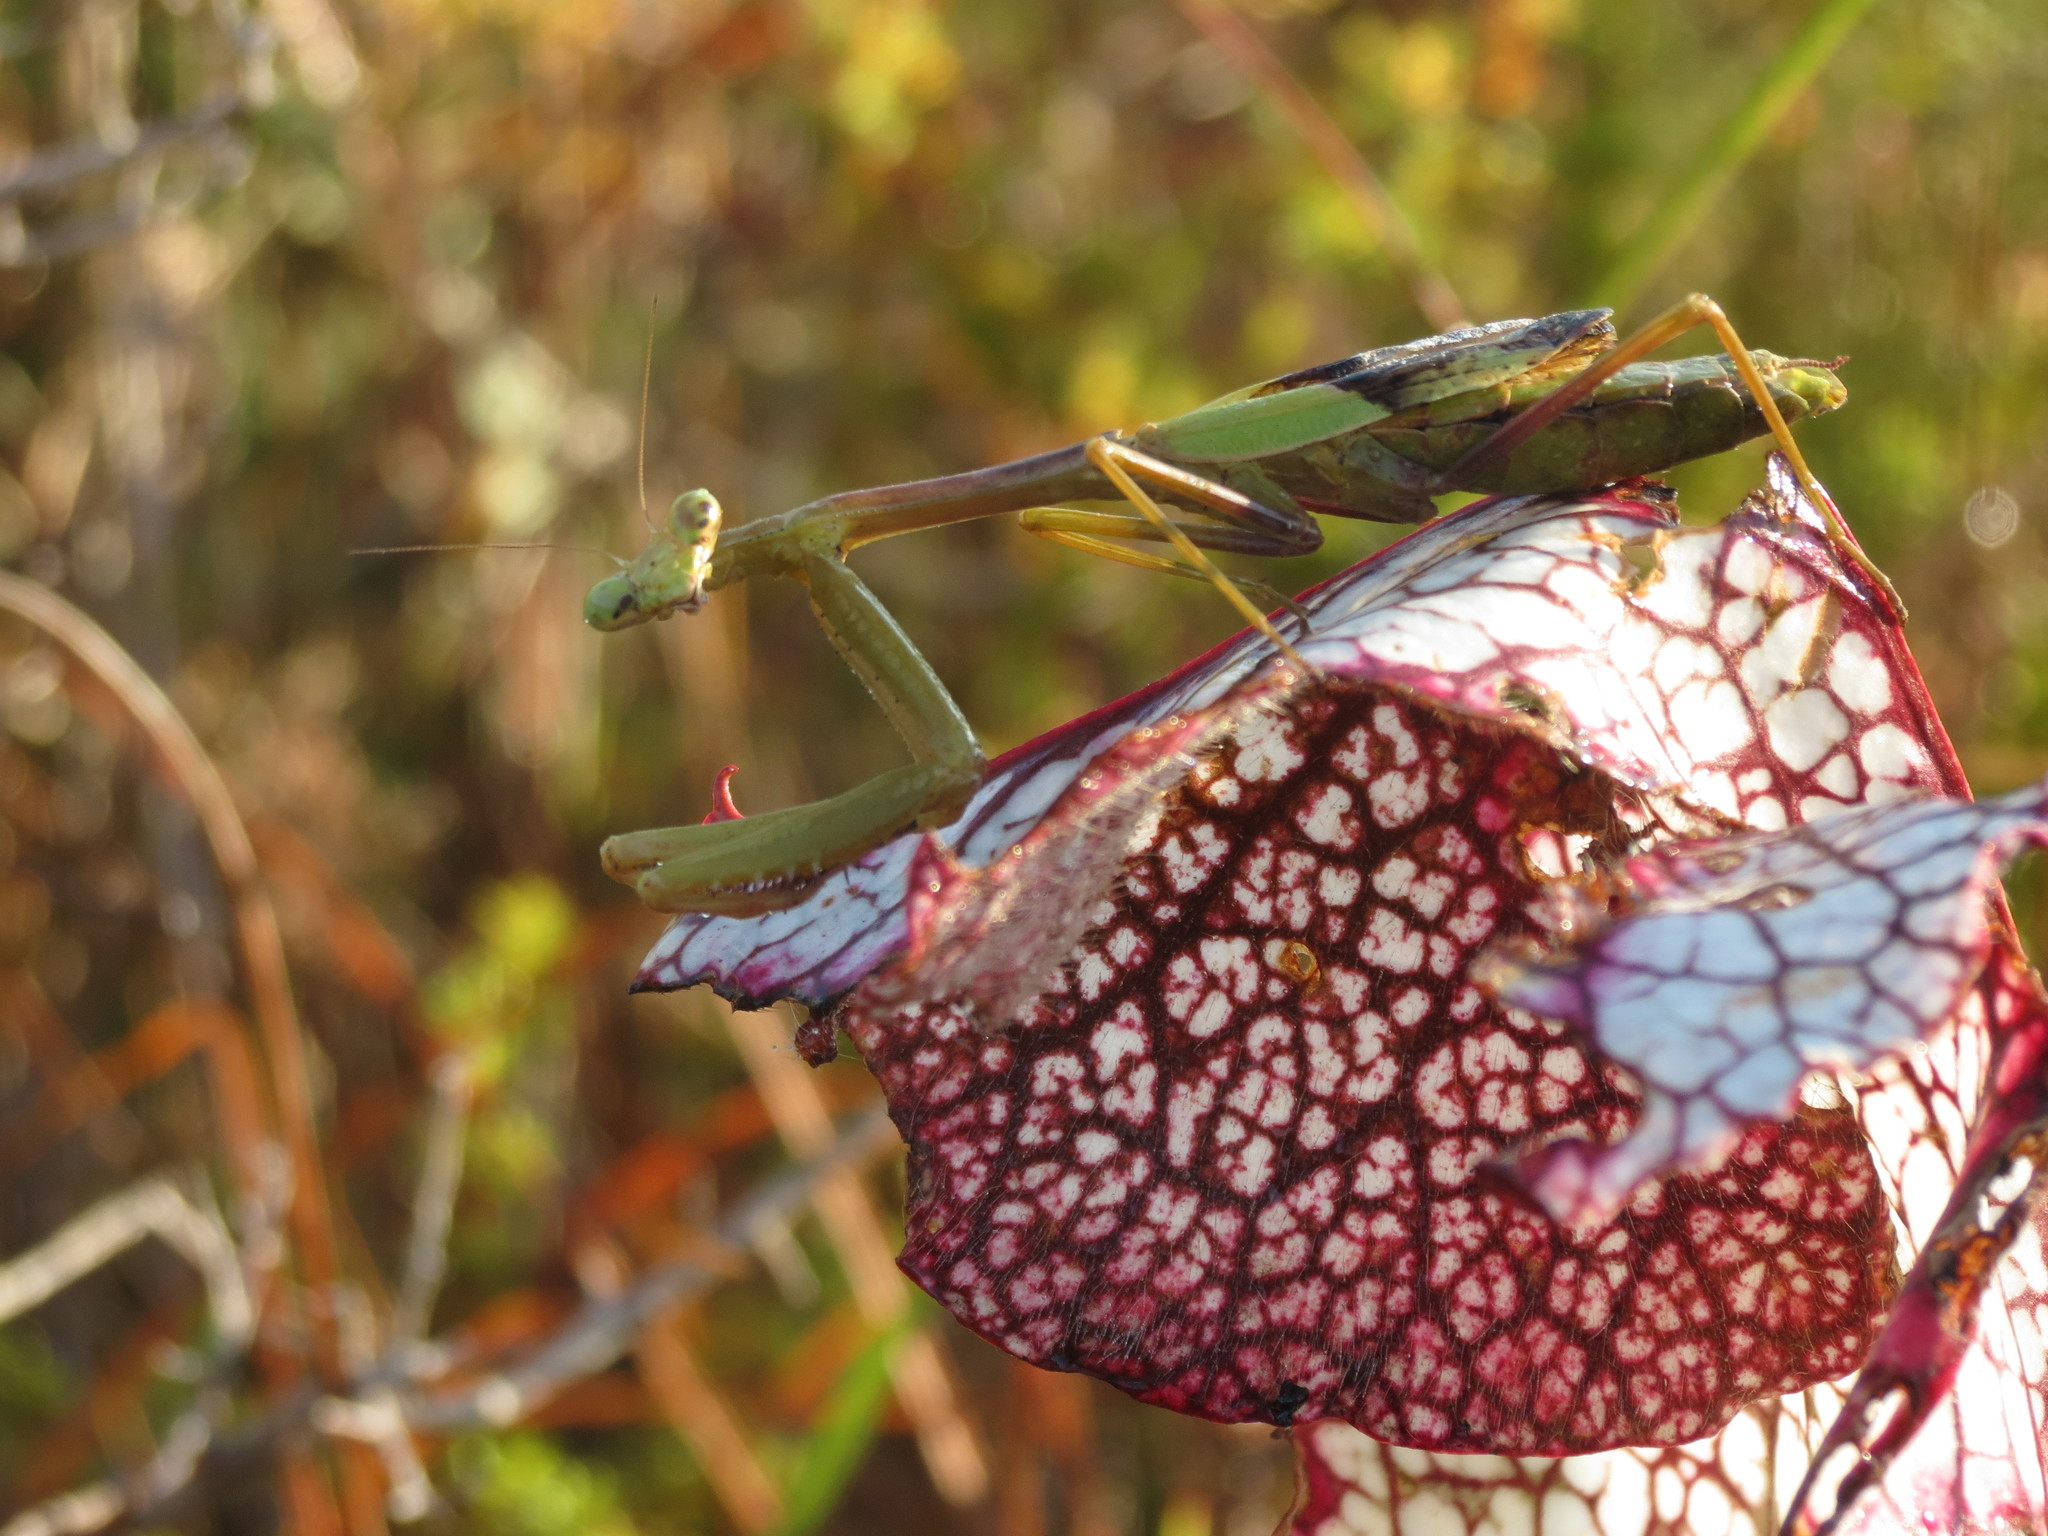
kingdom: Animalia
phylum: Arthropoda
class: Insecta
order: Mantodea
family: Mantidae
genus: Stagmomantis
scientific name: Stagmomantis carolina
